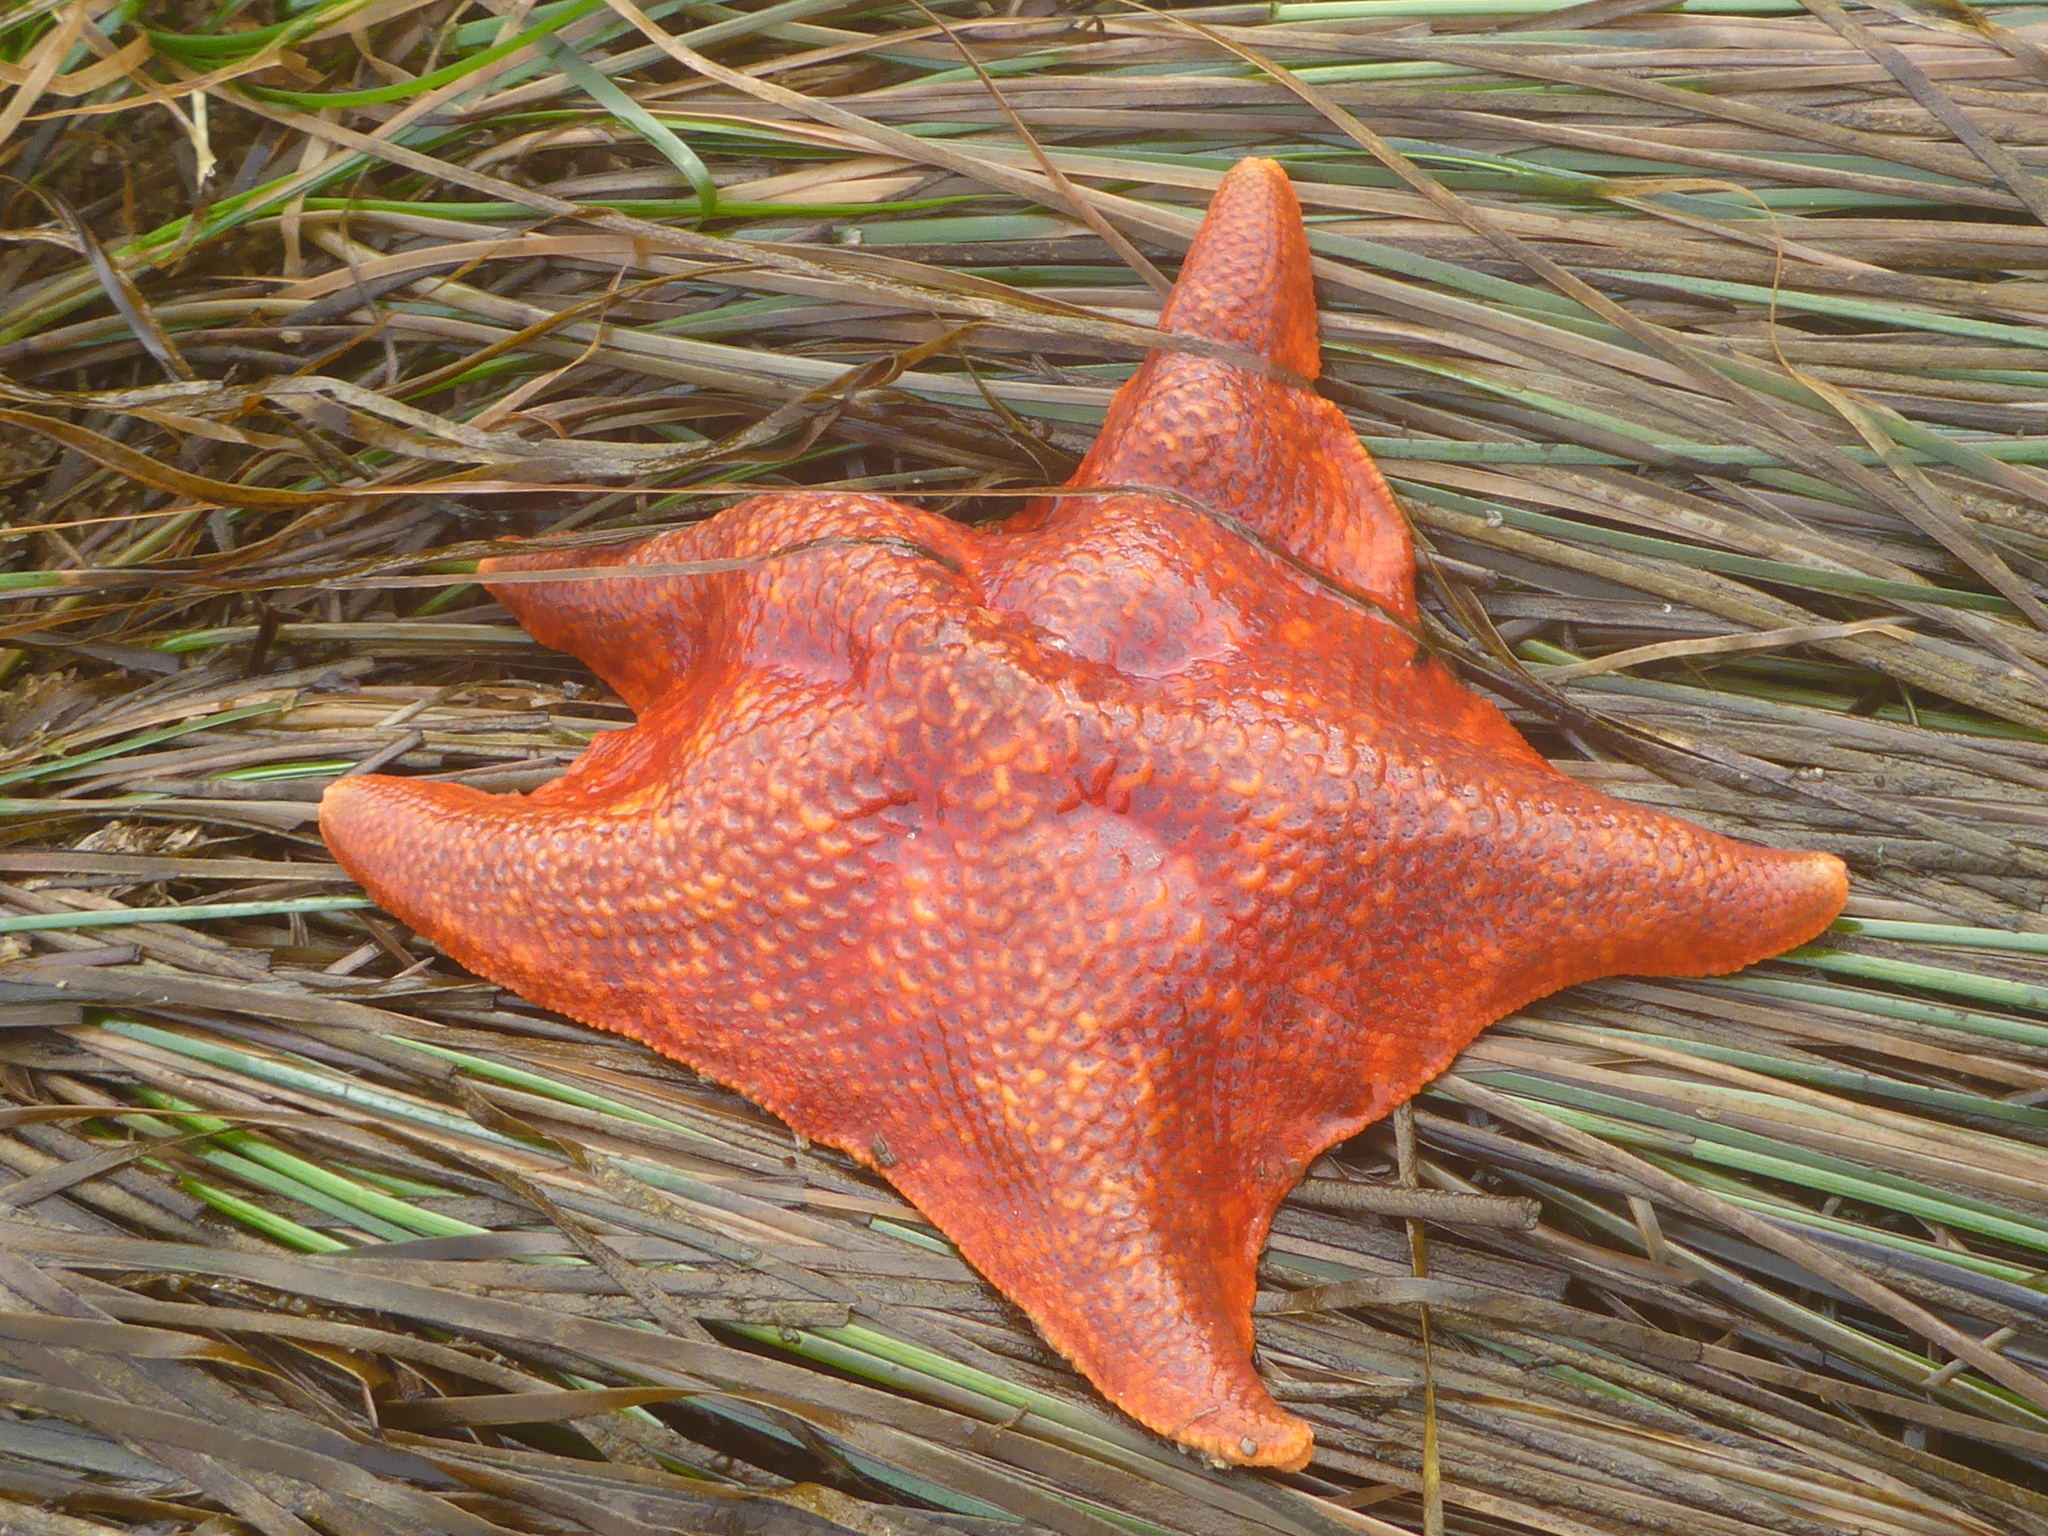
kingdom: Animalia
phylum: Echinodermata
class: Asteroidea
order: Valvatida
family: Asterinidae
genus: Patiria
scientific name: Patiria miniata
